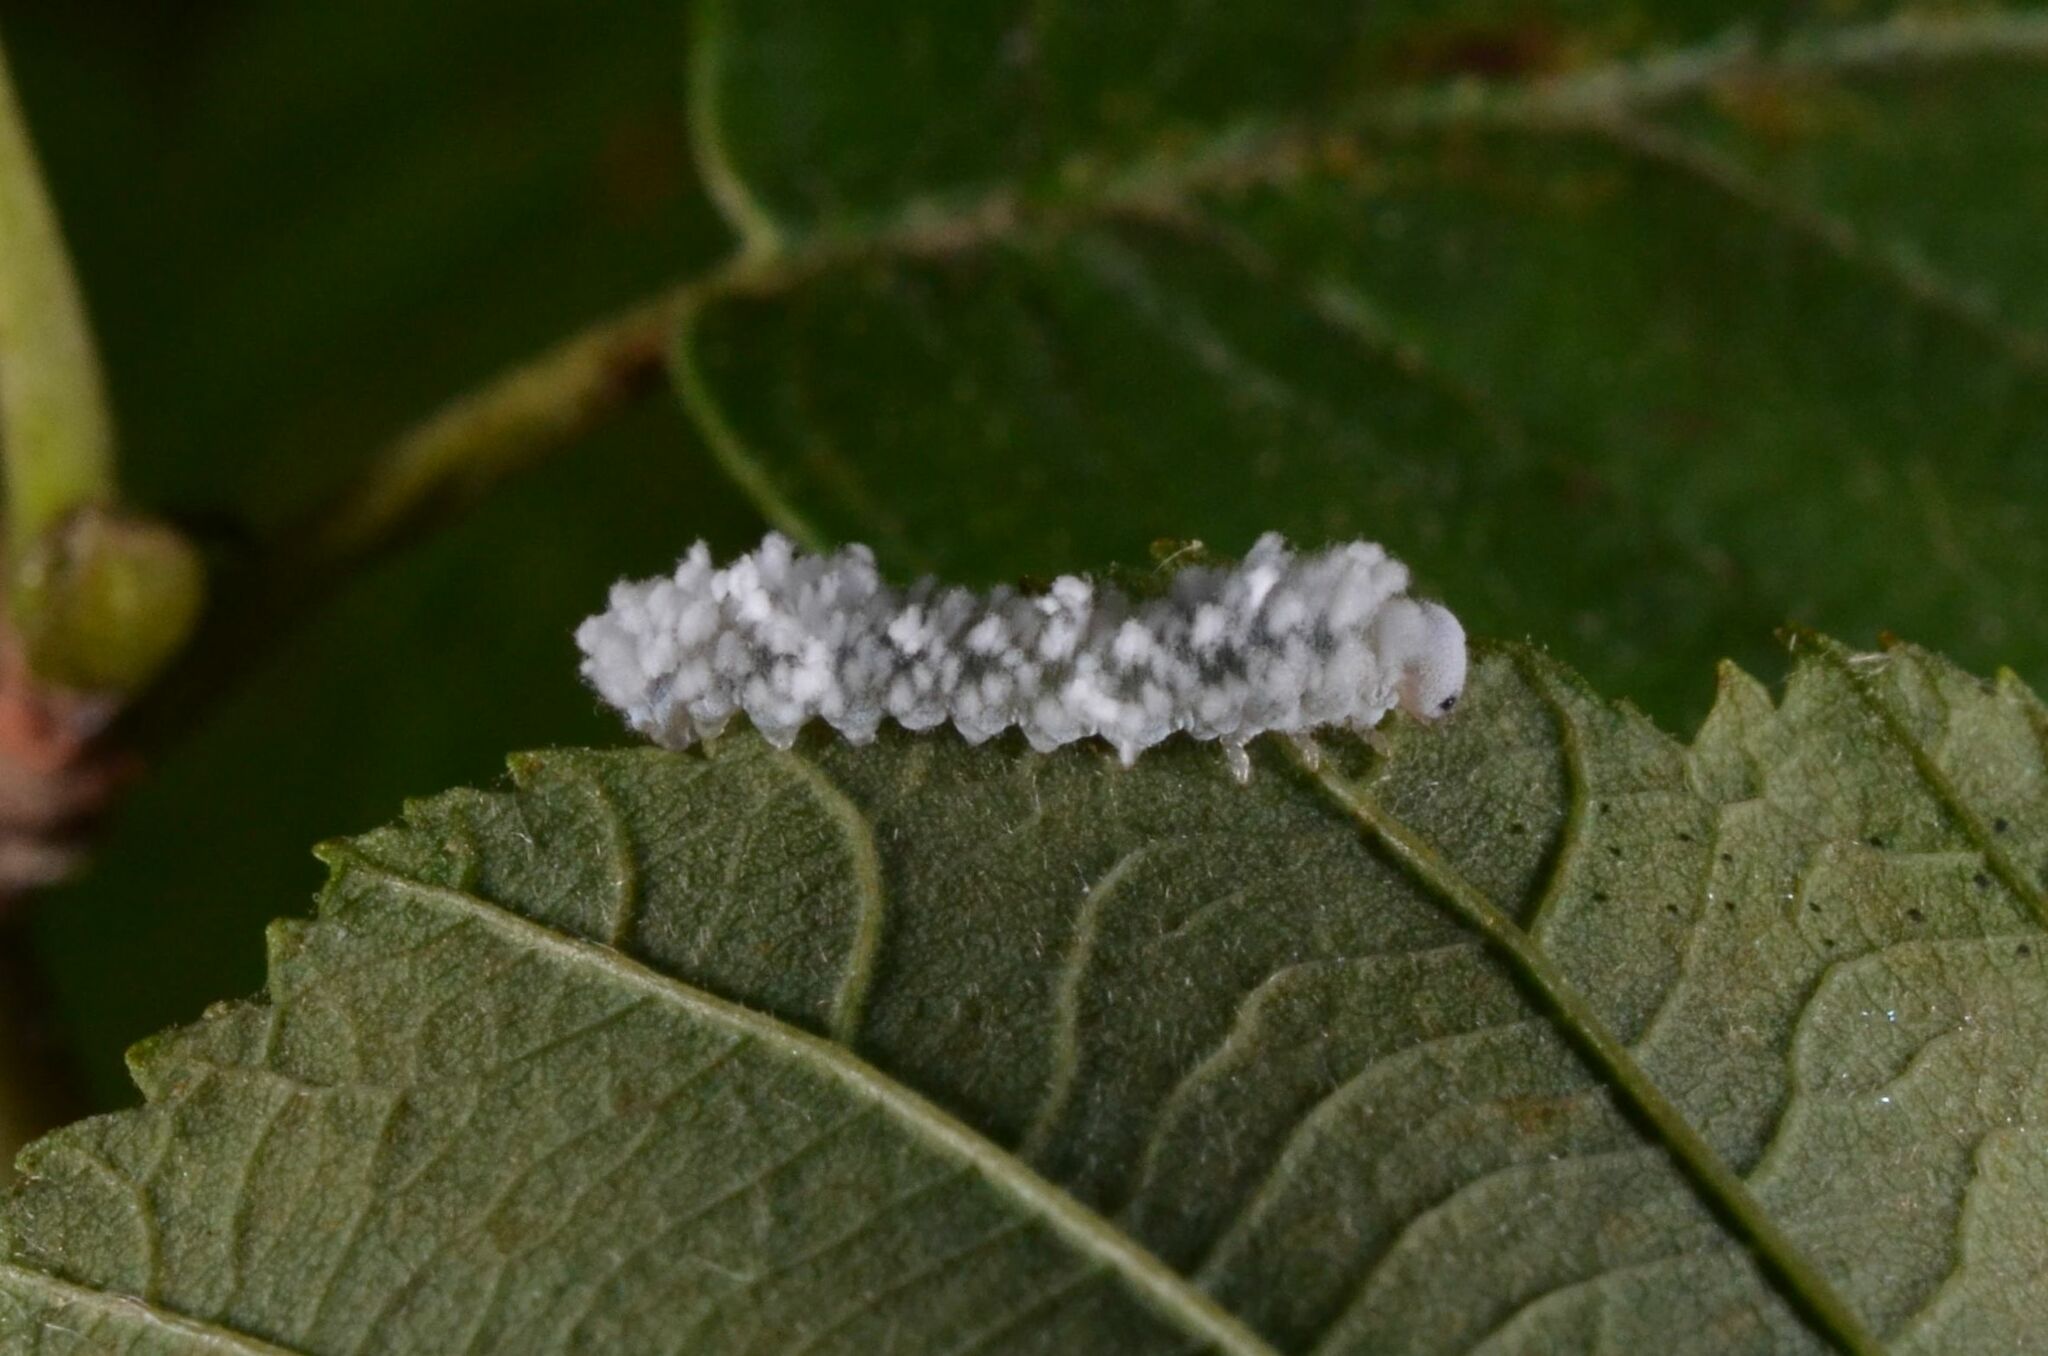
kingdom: Animalia
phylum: Arthropoda
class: Insecta
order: Hymenoptera
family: Tenthredinidae
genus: Eriocampa
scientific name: Eriocampa ovata
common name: Alder wooly sawfly
